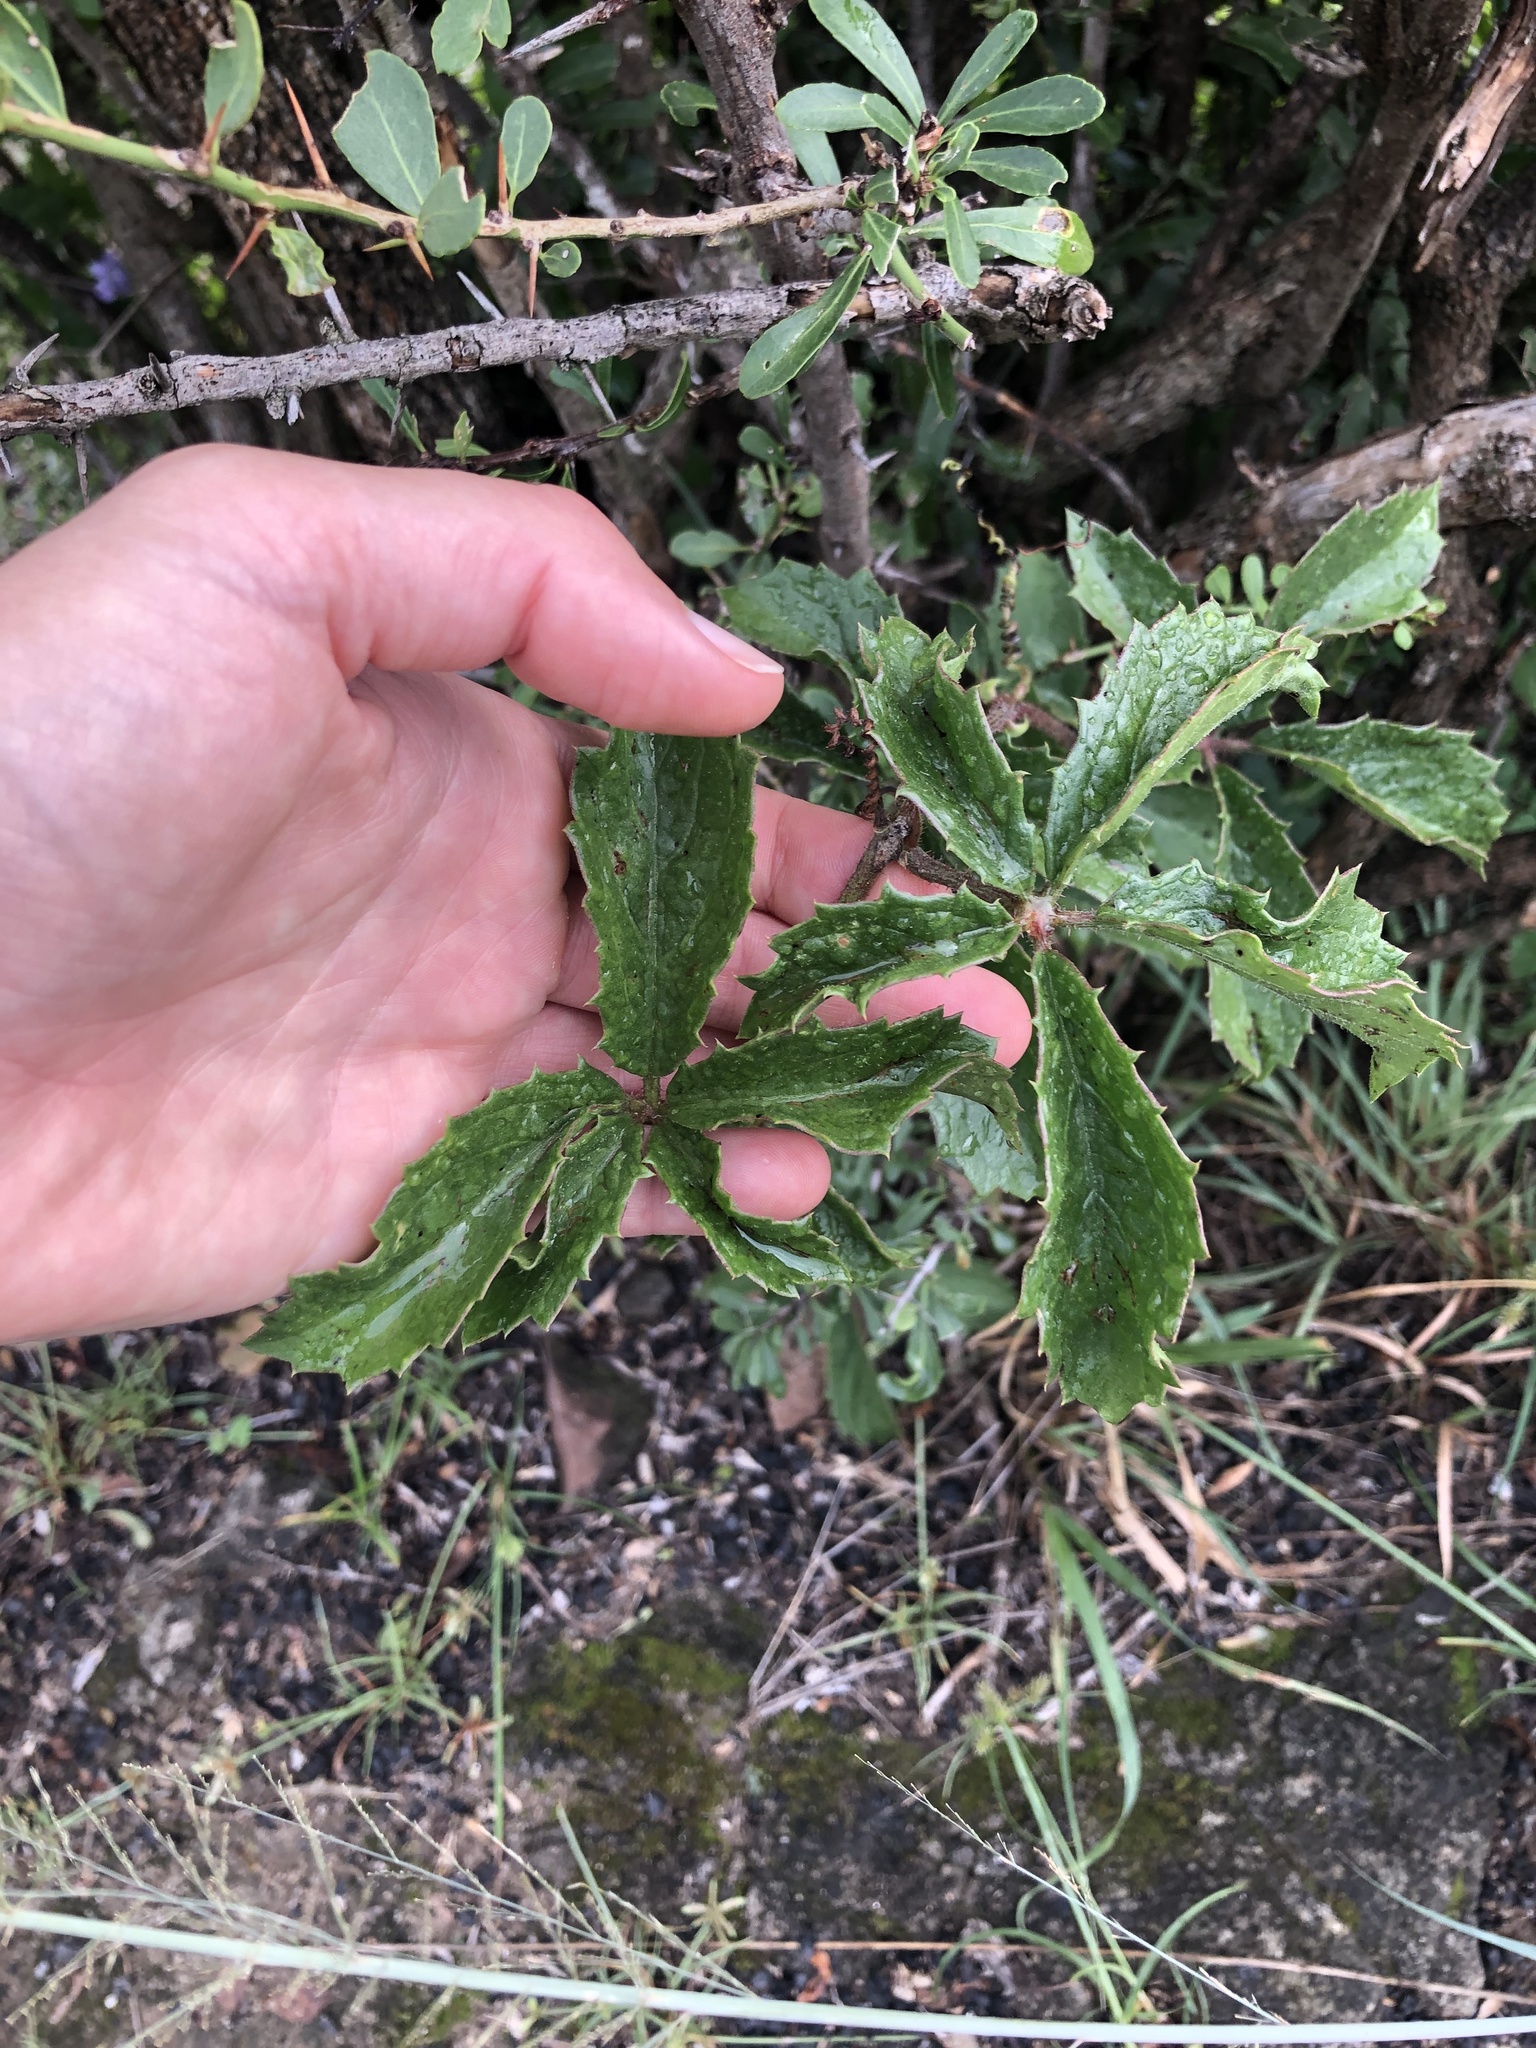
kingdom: Plantae
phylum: Tracheophyta
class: Magnoliopsida
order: Vitales
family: Vitaceae
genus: Cyphostemma
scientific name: Cyphostemma cirrhosum
